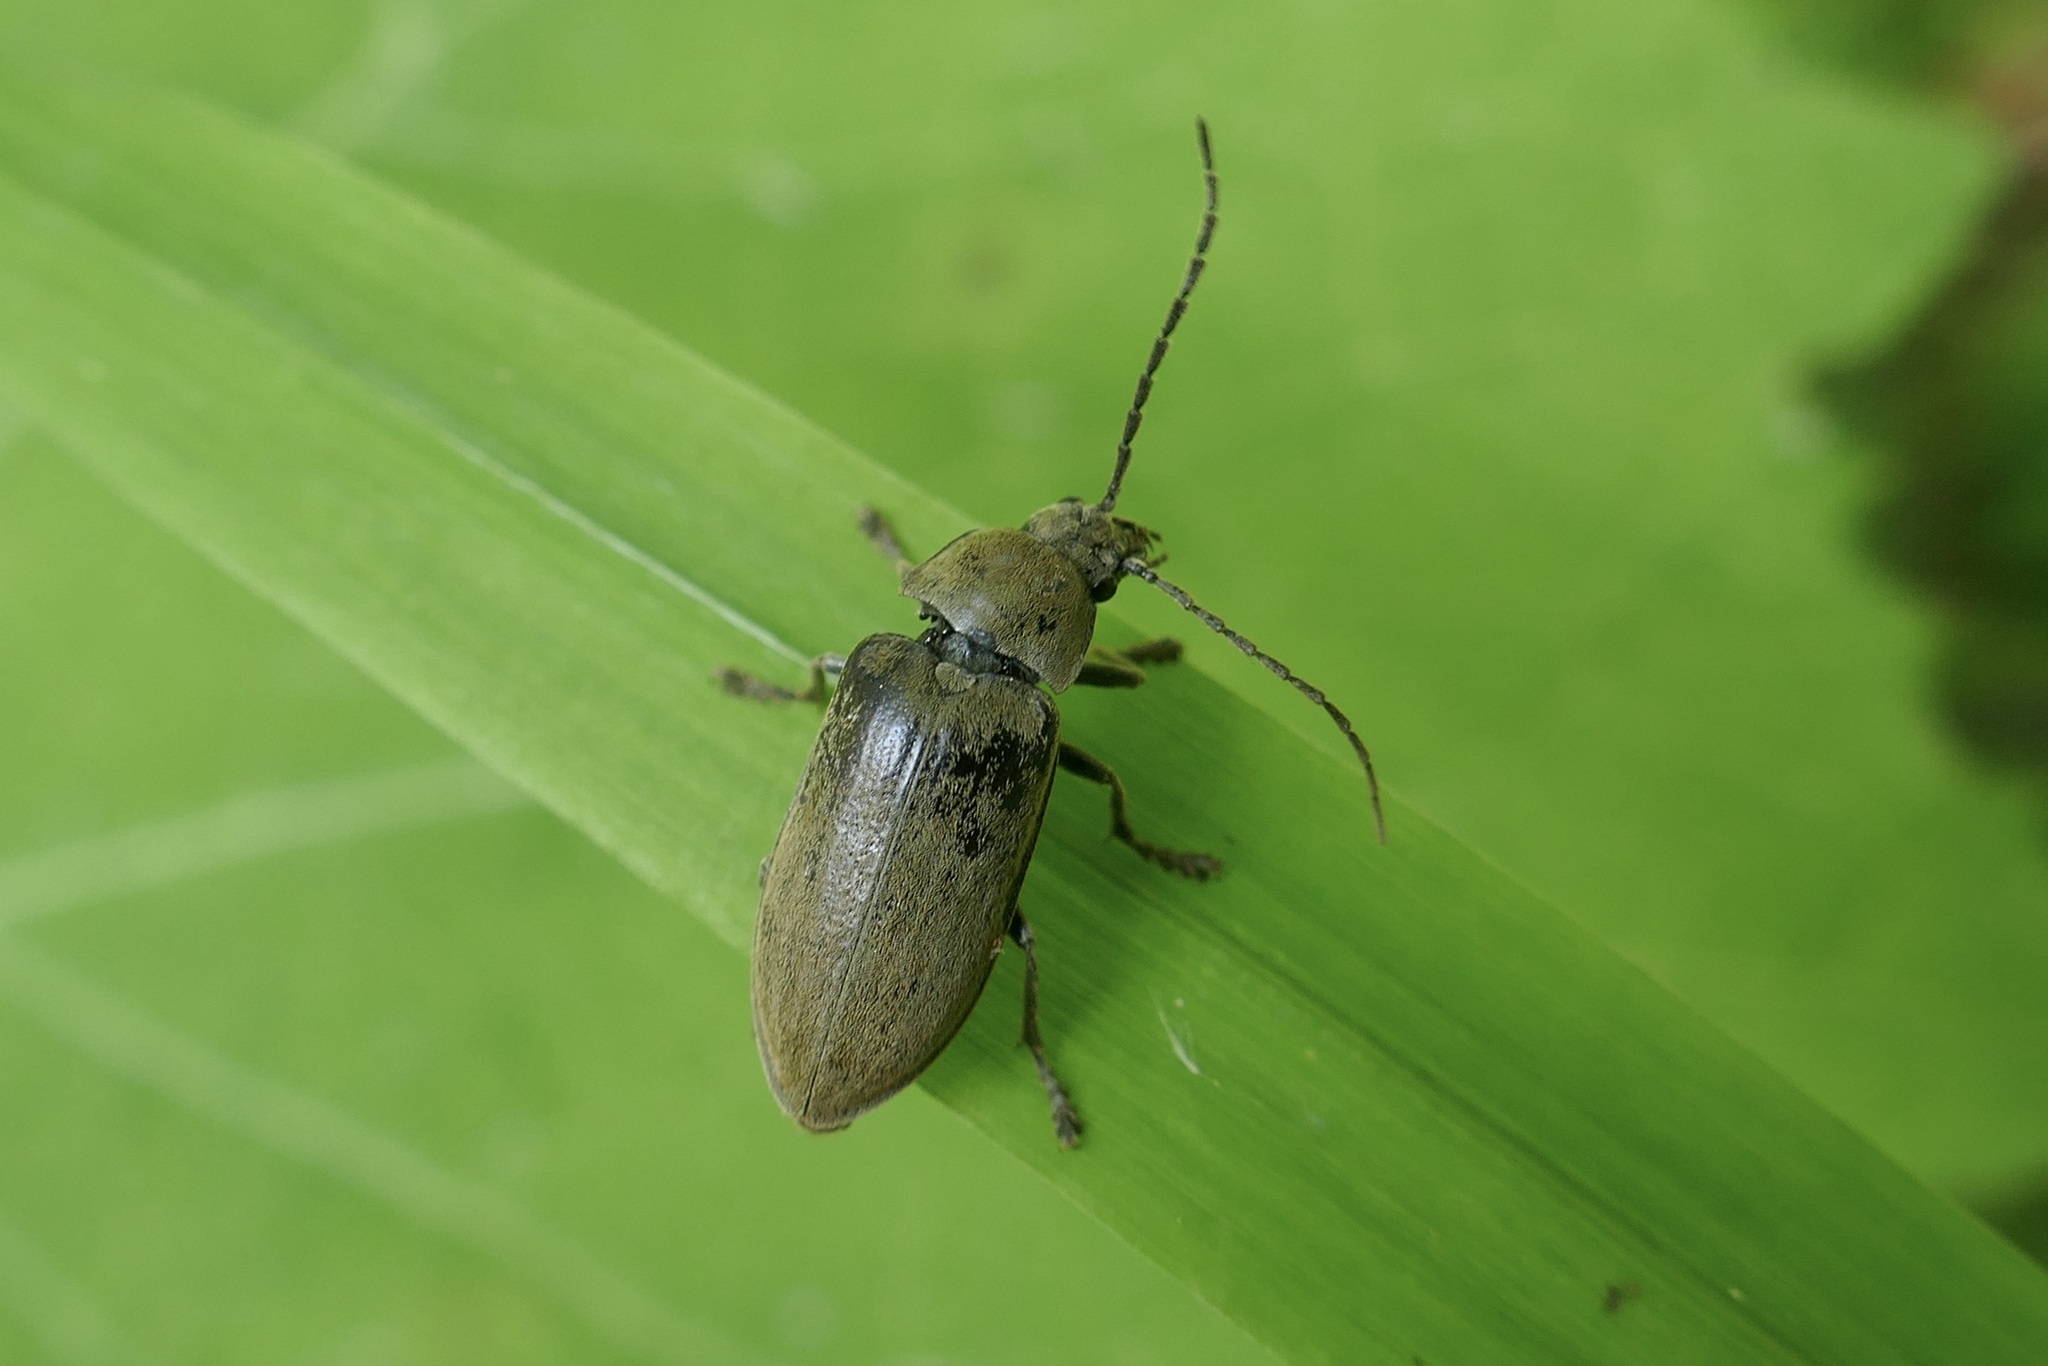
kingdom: Animalia
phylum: Arthropoda
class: Insecta
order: Coleoptera
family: Dascillidae
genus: Dascillus
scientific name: Dascillus cervinus
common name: Orchid beetle
